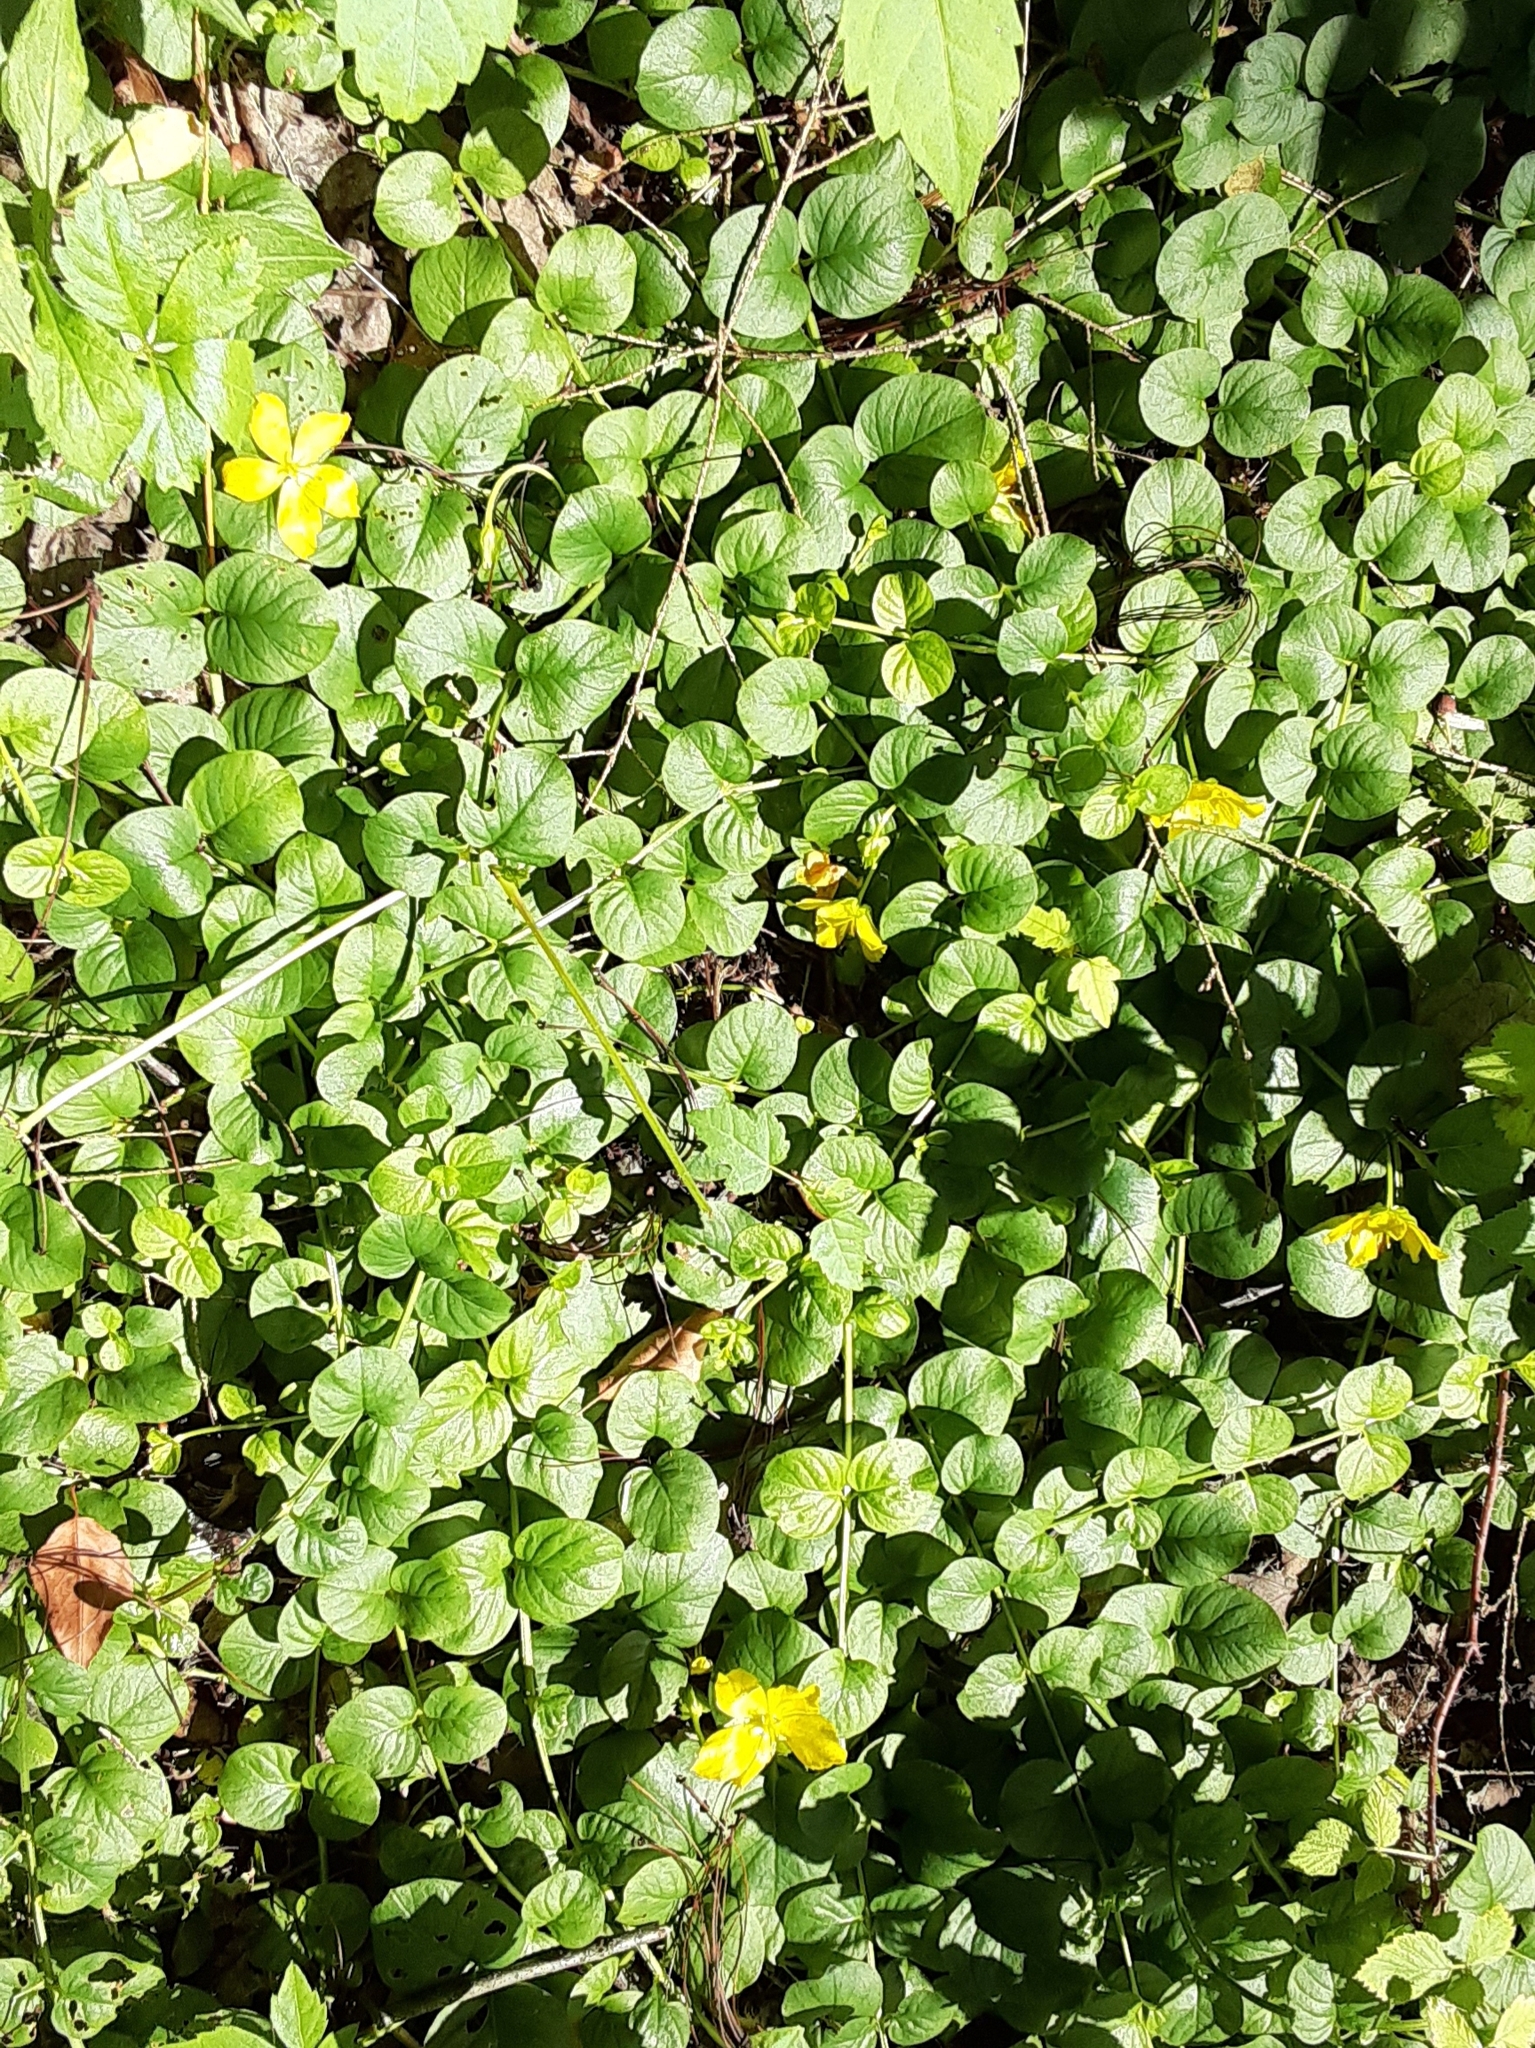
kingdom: Plantae
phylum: Tracheophyta
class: Magnoliopsida
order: Ericales
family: Primulaceae
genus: Lysimachia
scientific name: Lysimachia nummularia
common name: Moneywort
